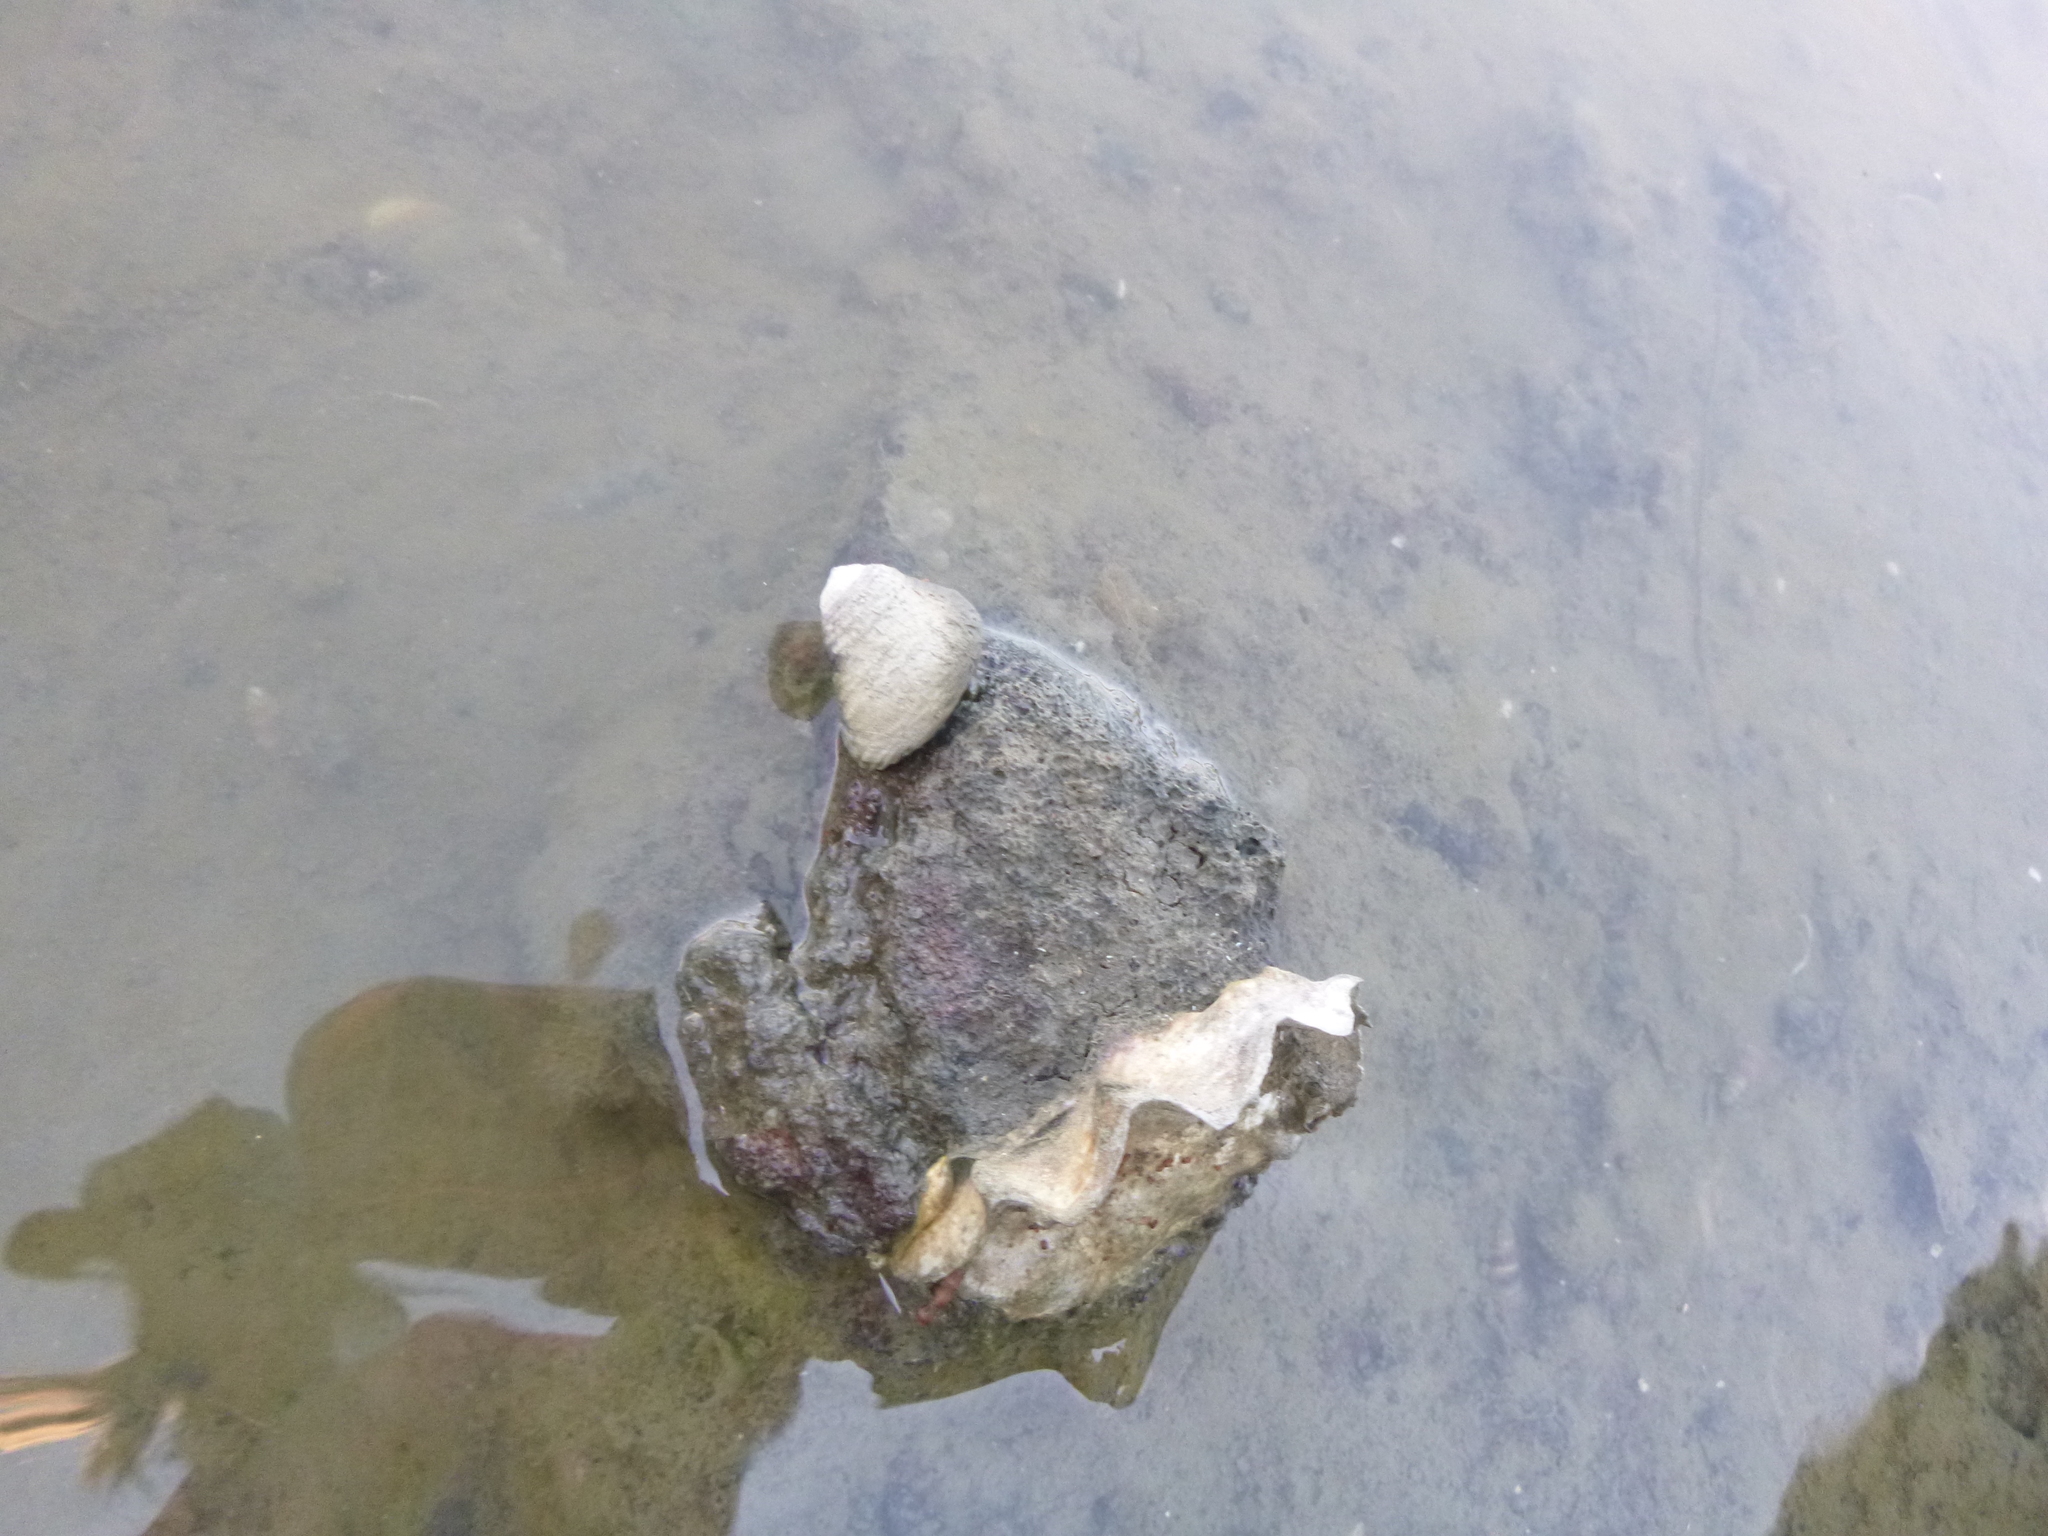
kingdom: Animalia
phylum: Mollusca
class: Gastropoda
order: Trochida
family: Trochidae
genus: Diloma
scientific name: Diloma subrostratum
